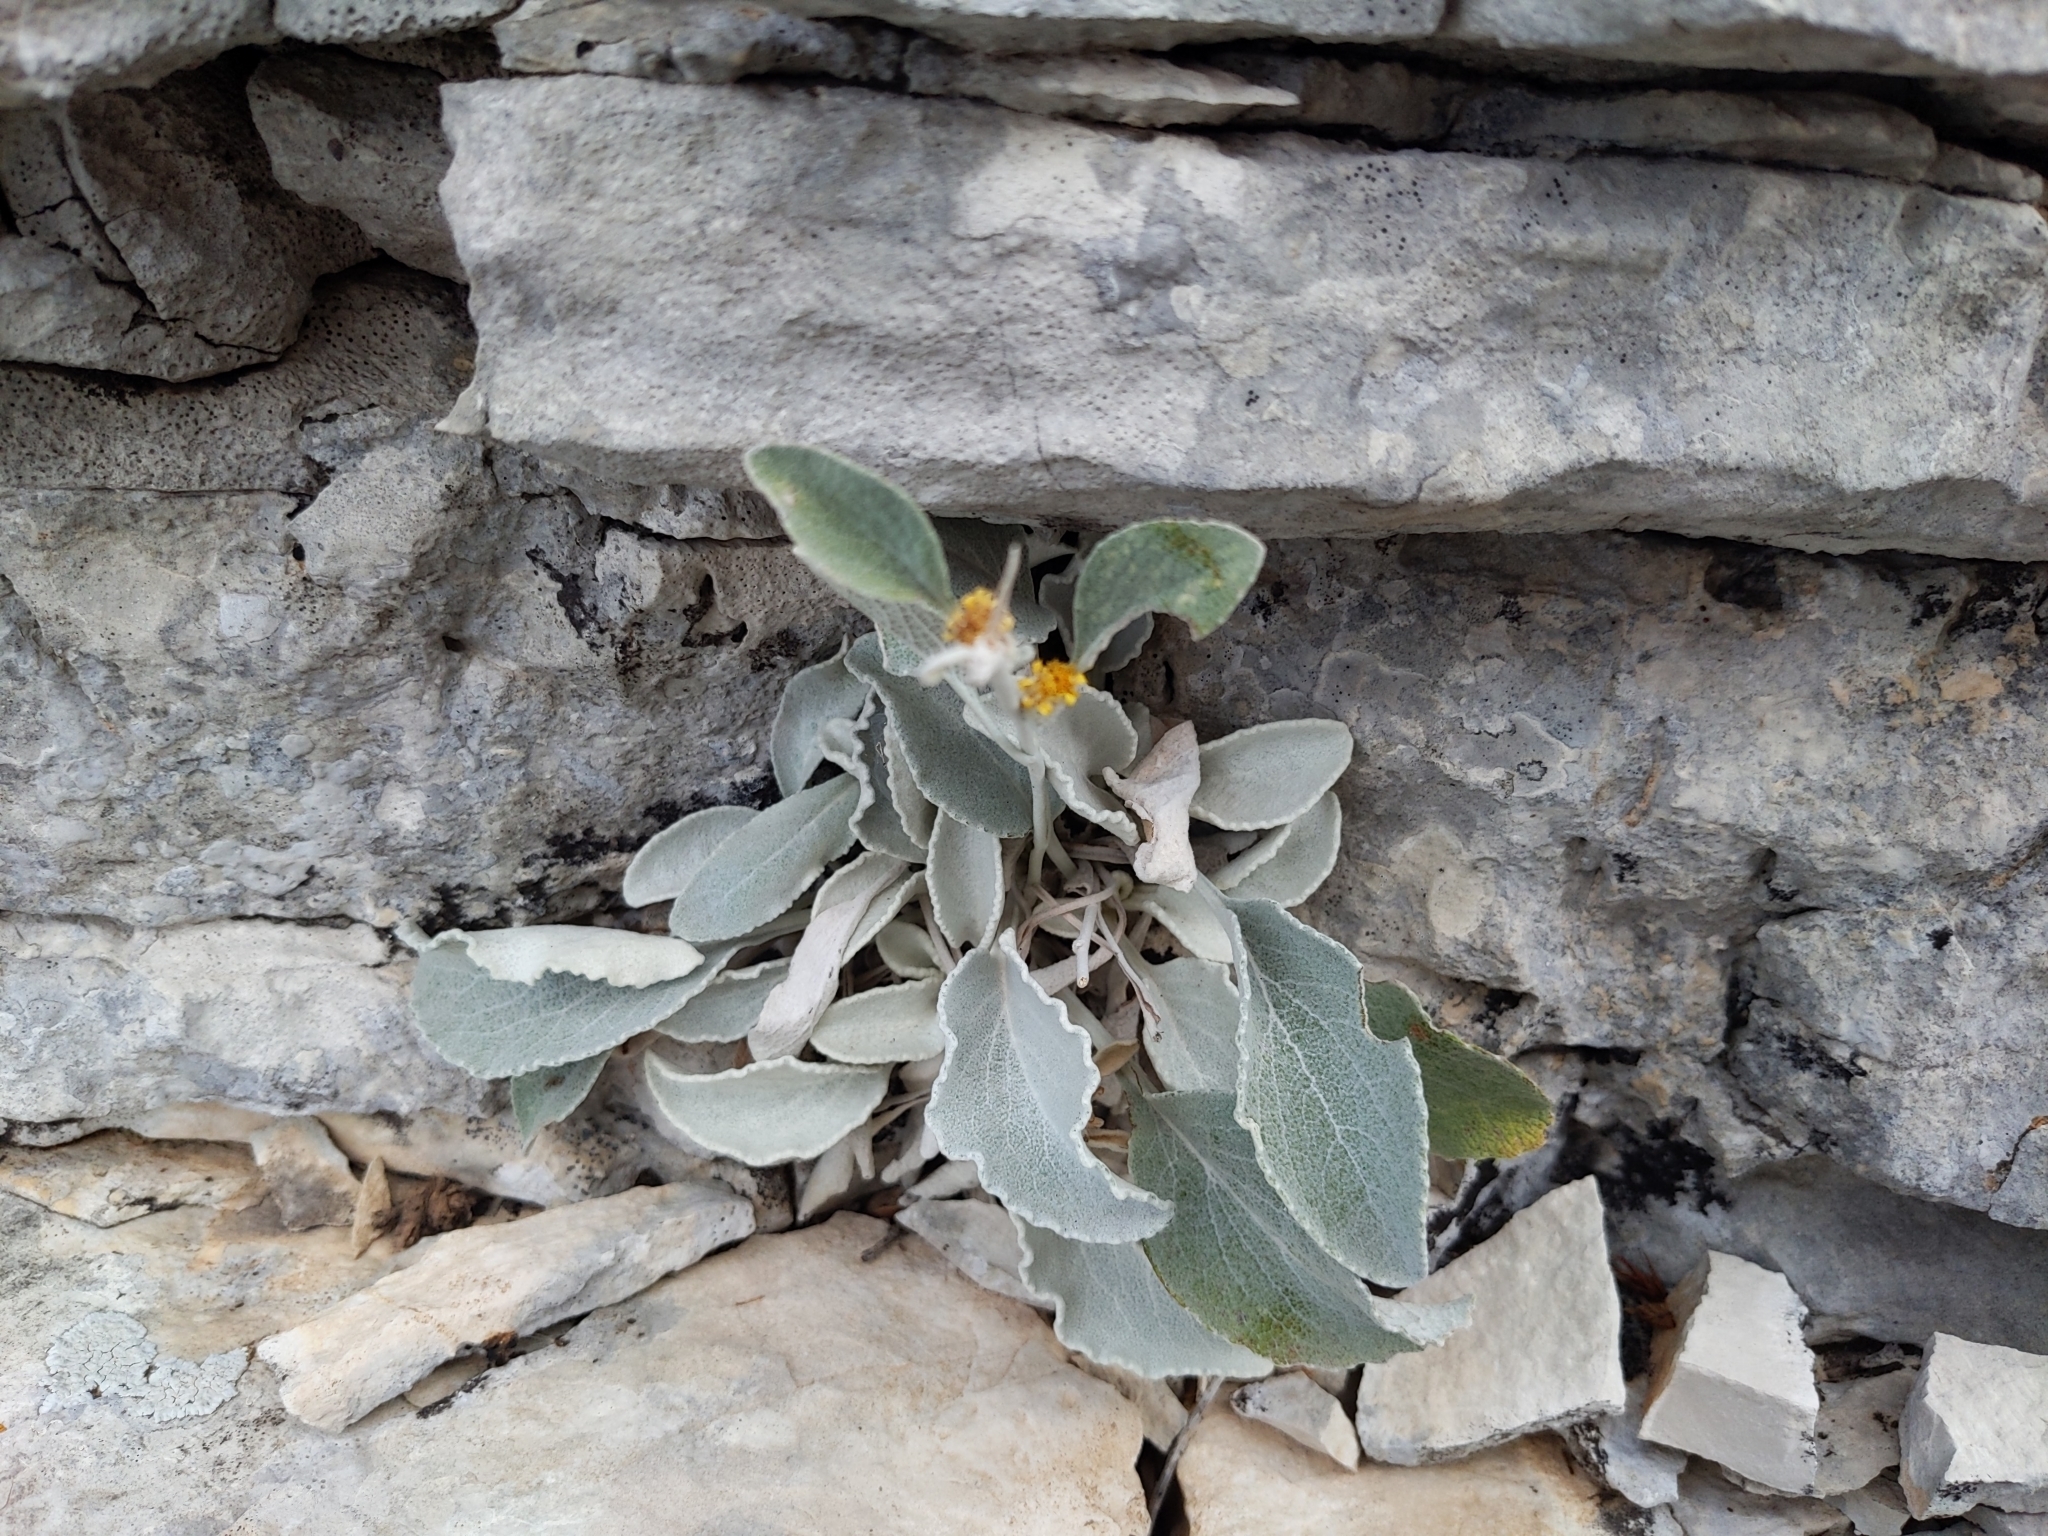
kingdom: Plantae
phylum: Tracheophyta
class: Magnoliopsida
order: Asterales
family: Asteraceae
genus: Pentanema
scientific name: Pentanema verbascifolium
